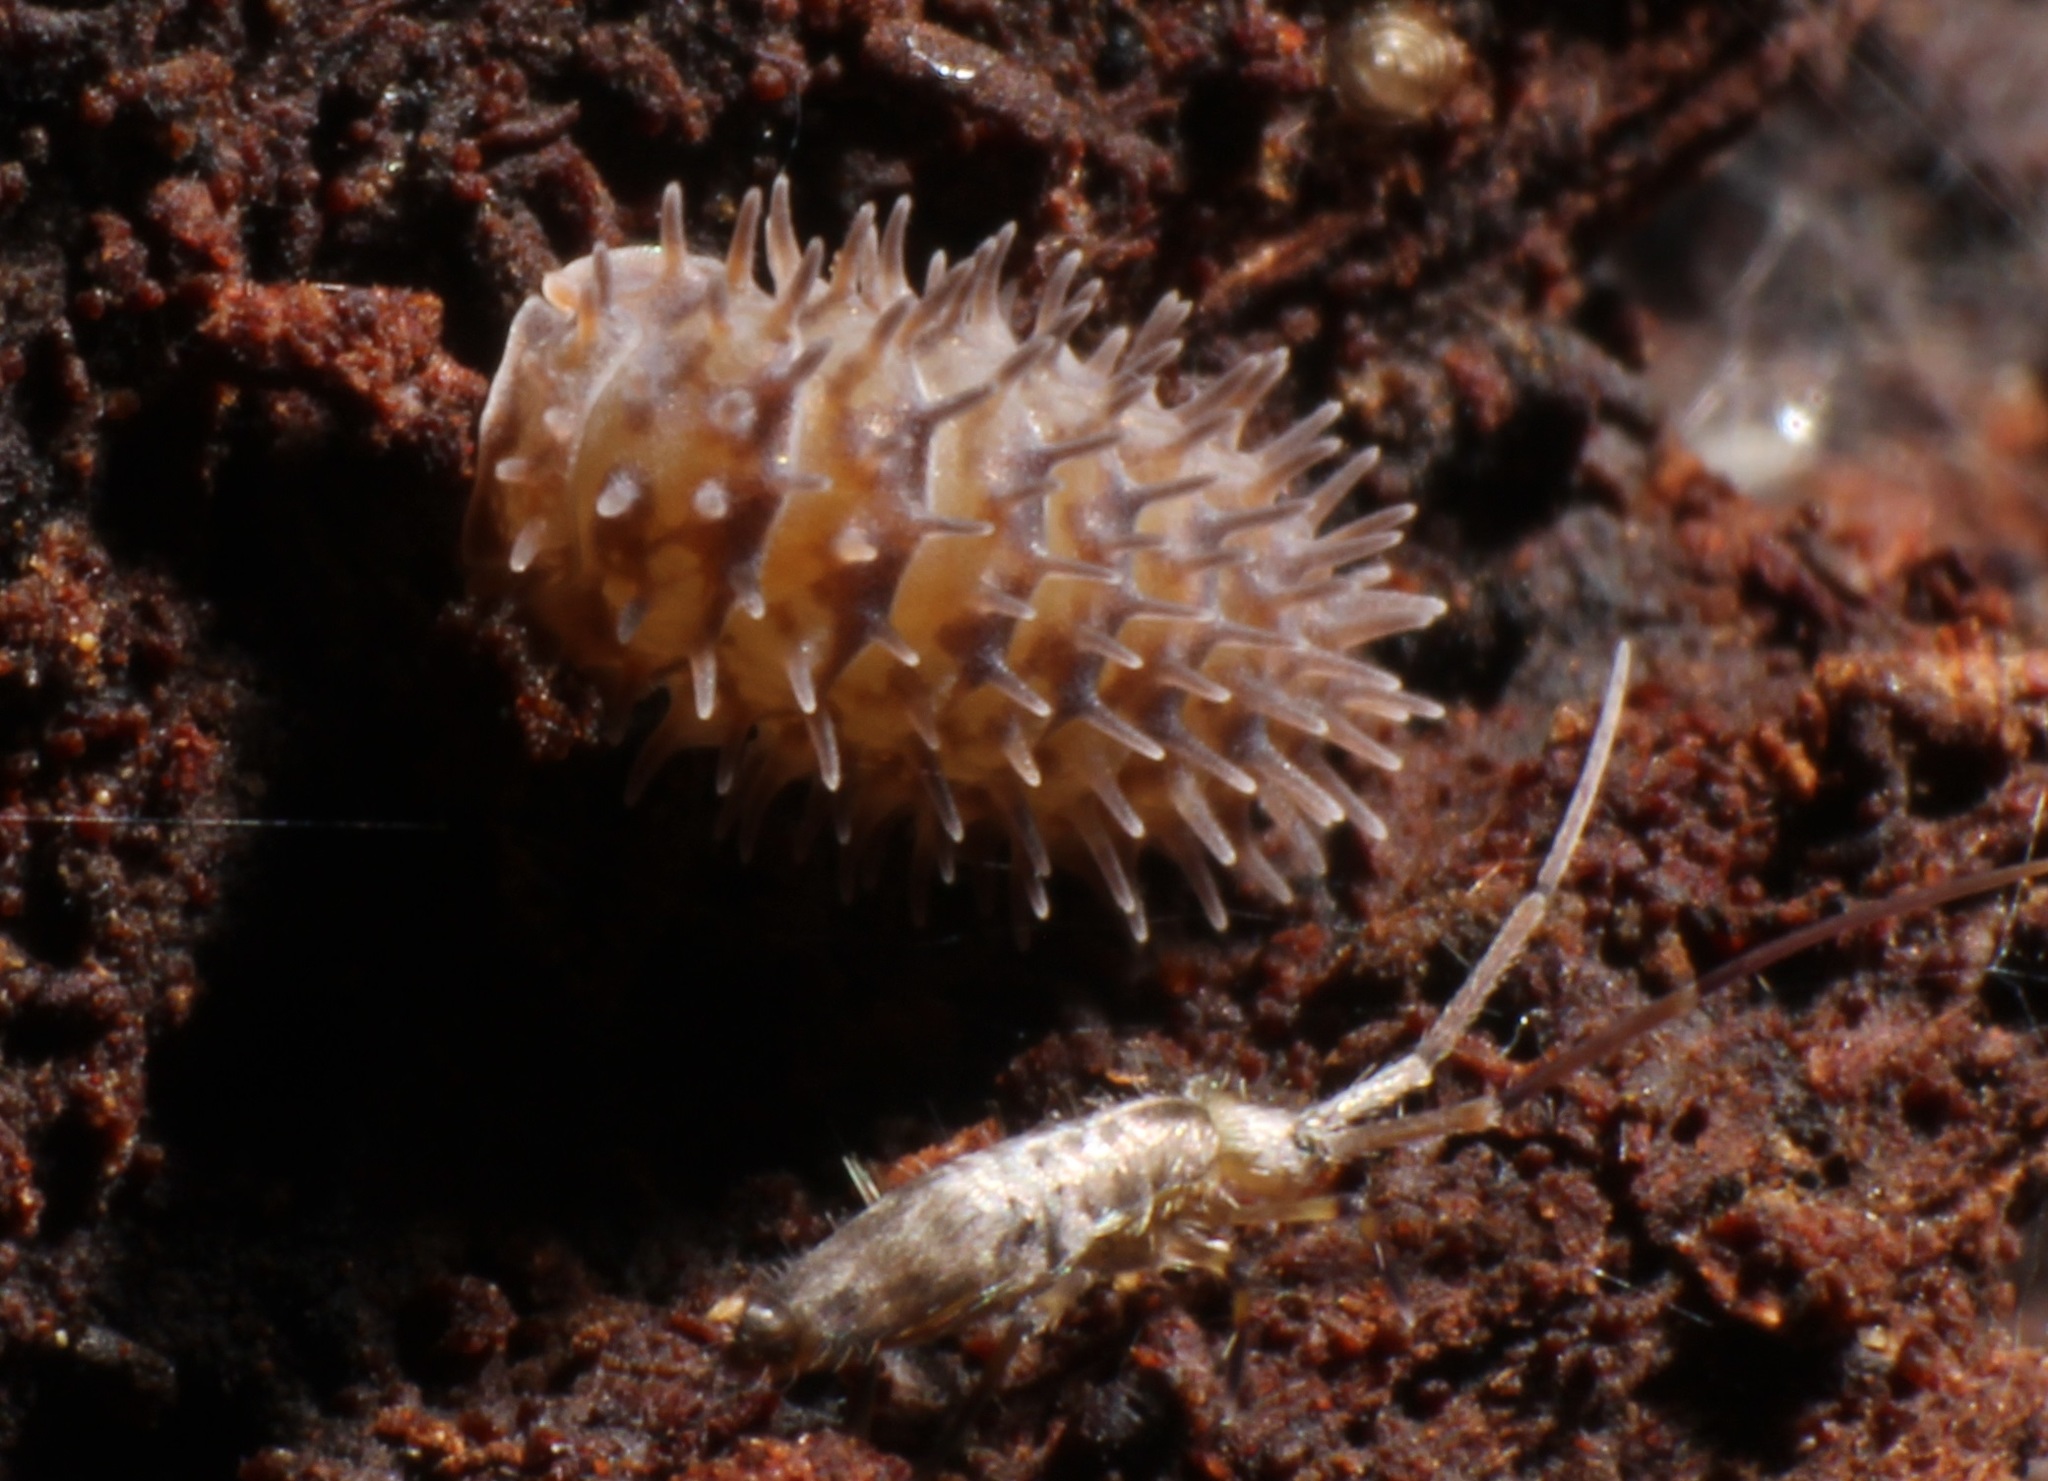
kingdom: Animalia
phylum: Arthropoda
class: Malacostraca
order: Isopoda
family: Armadillidae
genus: Pseudolaureola
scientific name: Pseudolaureola wilsmorei
